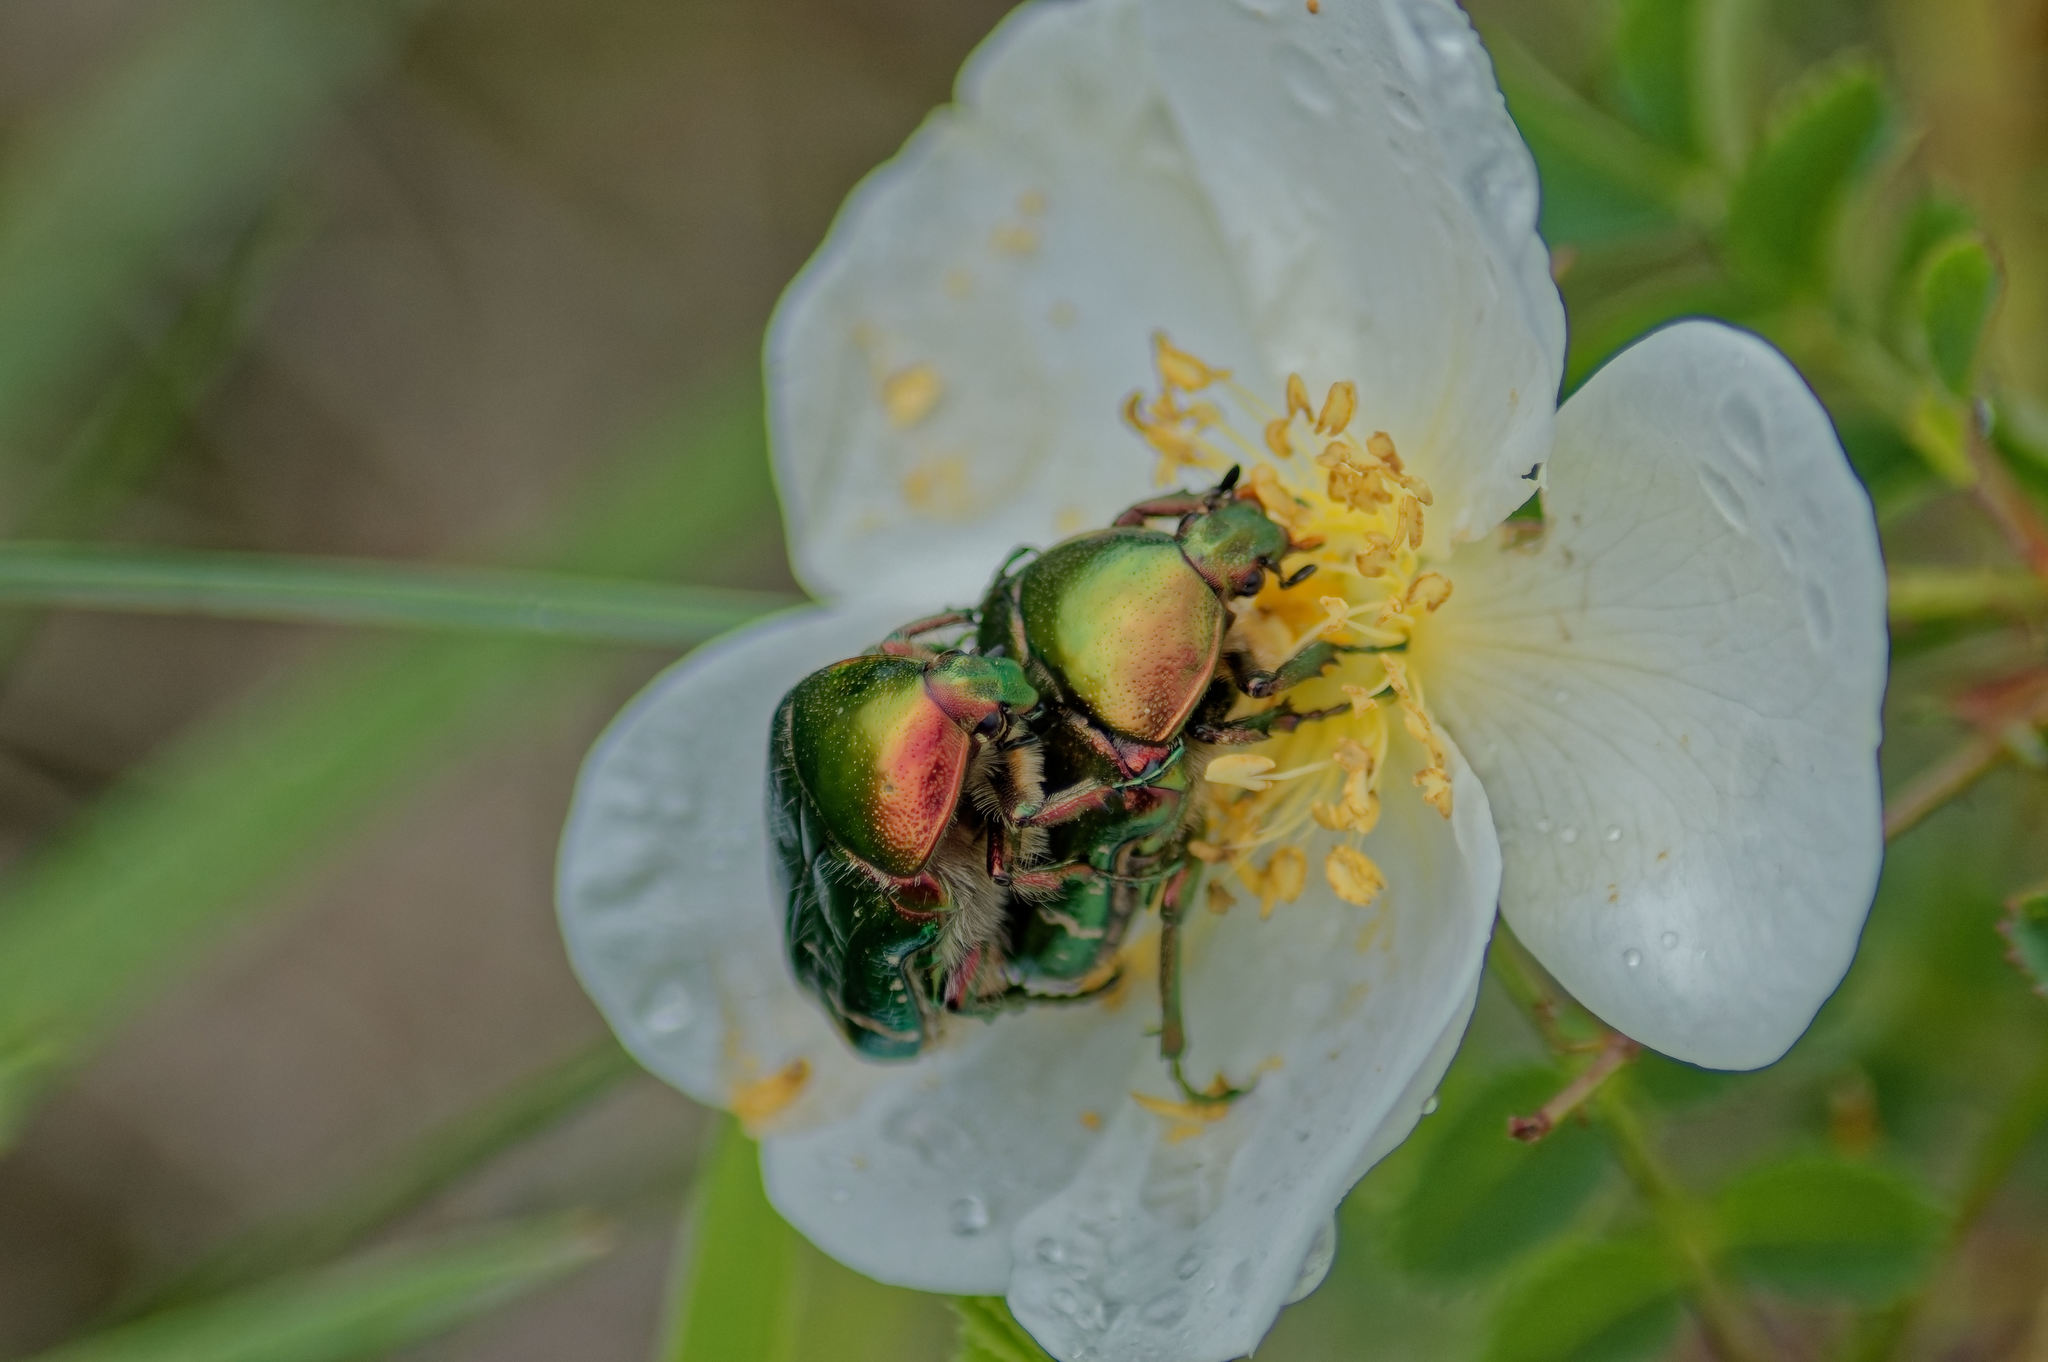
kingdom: Animalia
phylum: Arthropoda
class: Insecta
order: Coleoptera
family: Scarabaeidae
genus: Cetonia
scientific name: Cetonia aurata
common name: Rose chafer
